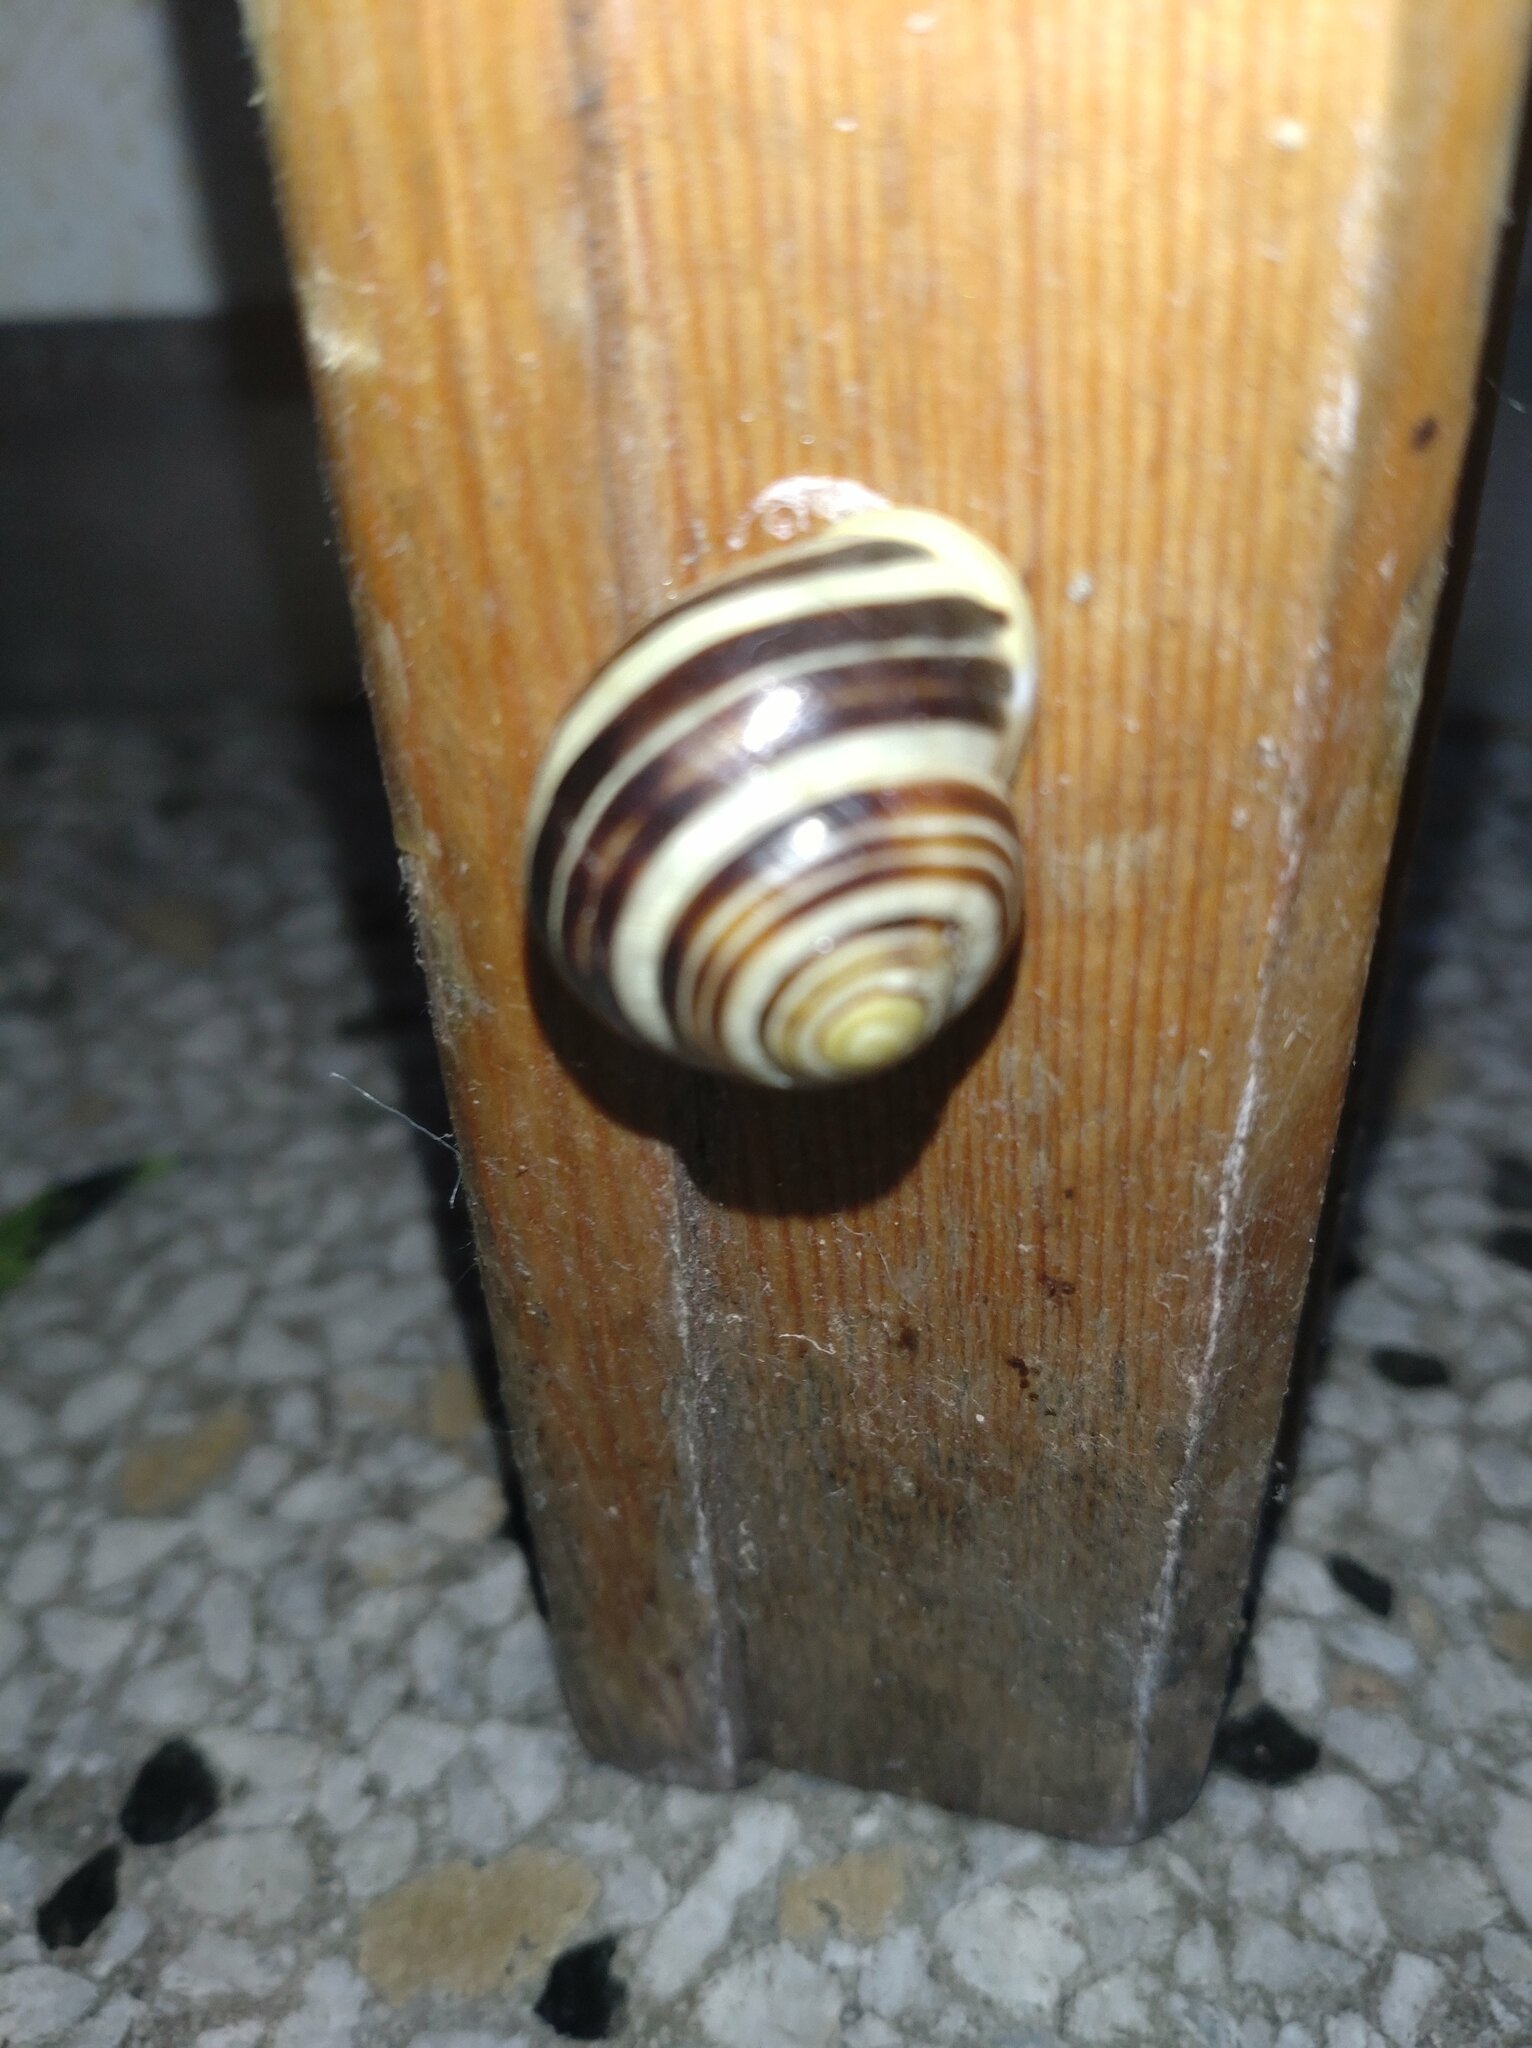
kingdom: Animalia
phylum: Mollusca
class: Gastropoda
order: Stylommatophora
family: Helicidae
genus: Cepaea
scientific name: Cepaea hortensis
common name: White-lip gardensnail
